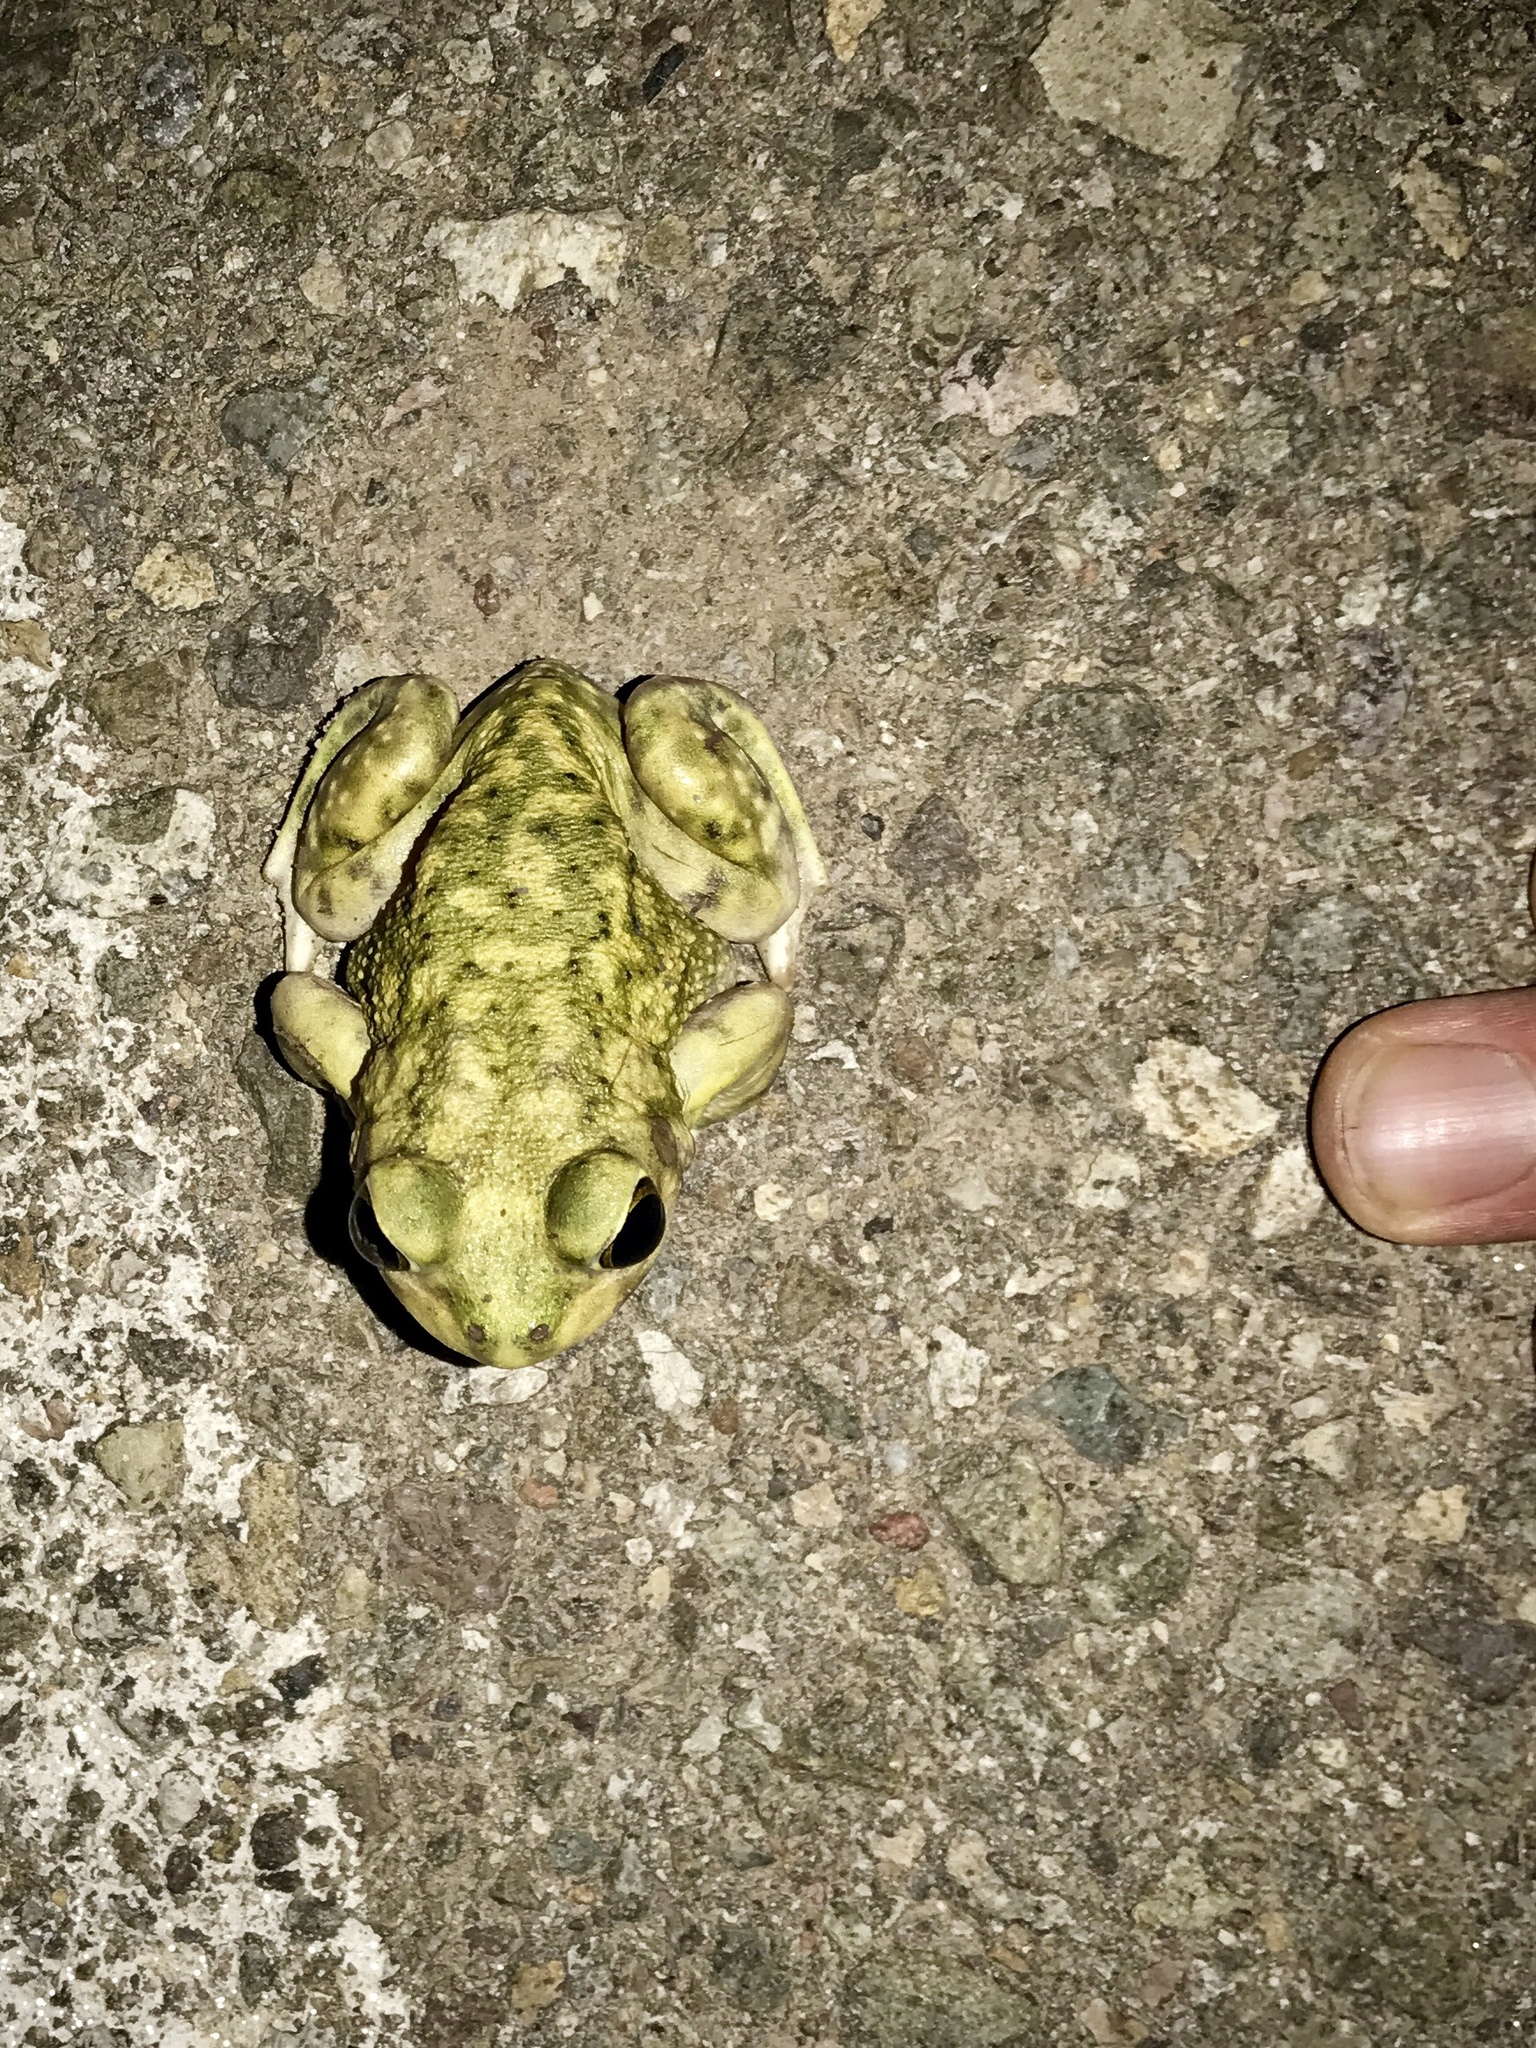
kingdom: Animalia
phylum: Chordata
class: Amphibia
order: Anura
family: Scaphiopodidae
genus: Scaphiopus
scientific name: Scaphiopus couchii
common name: Couch's spadefoot toad
